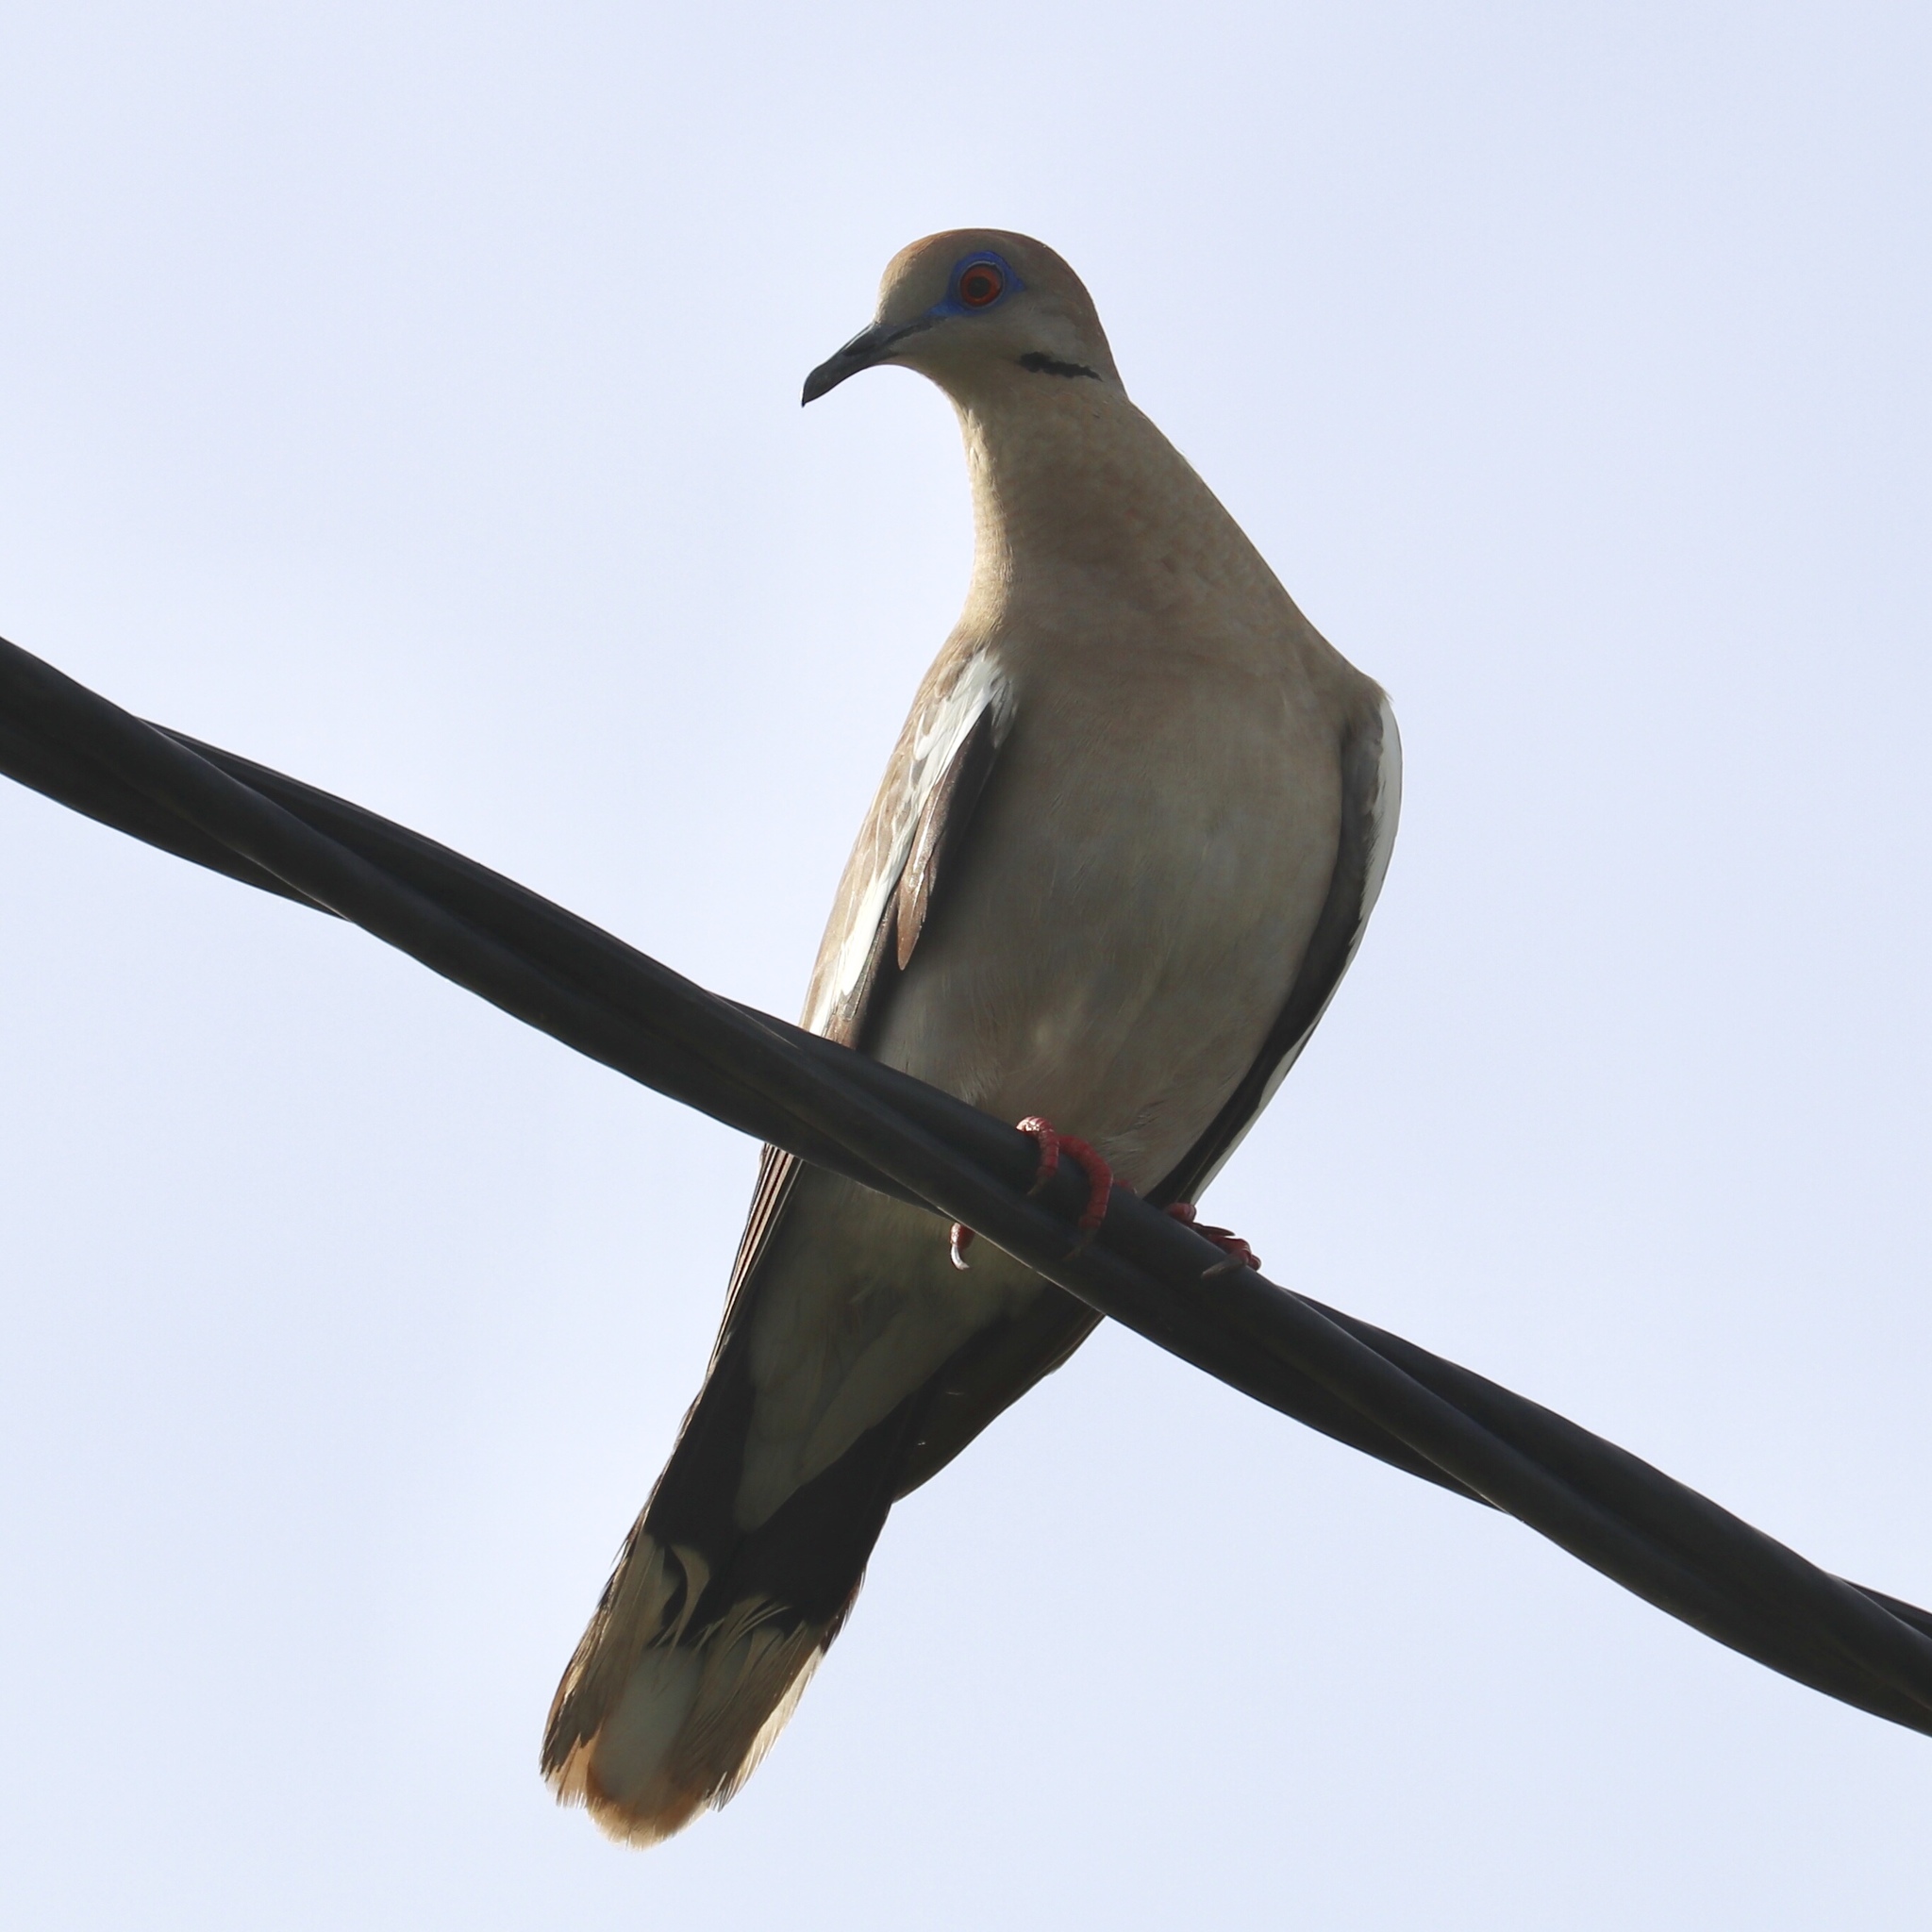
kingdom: Animalia
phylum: Chordata
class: Aves
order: Columbiformes
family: Columbidae
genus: Zenaida
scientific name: Zenaida asiatica
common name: White-winged dove
